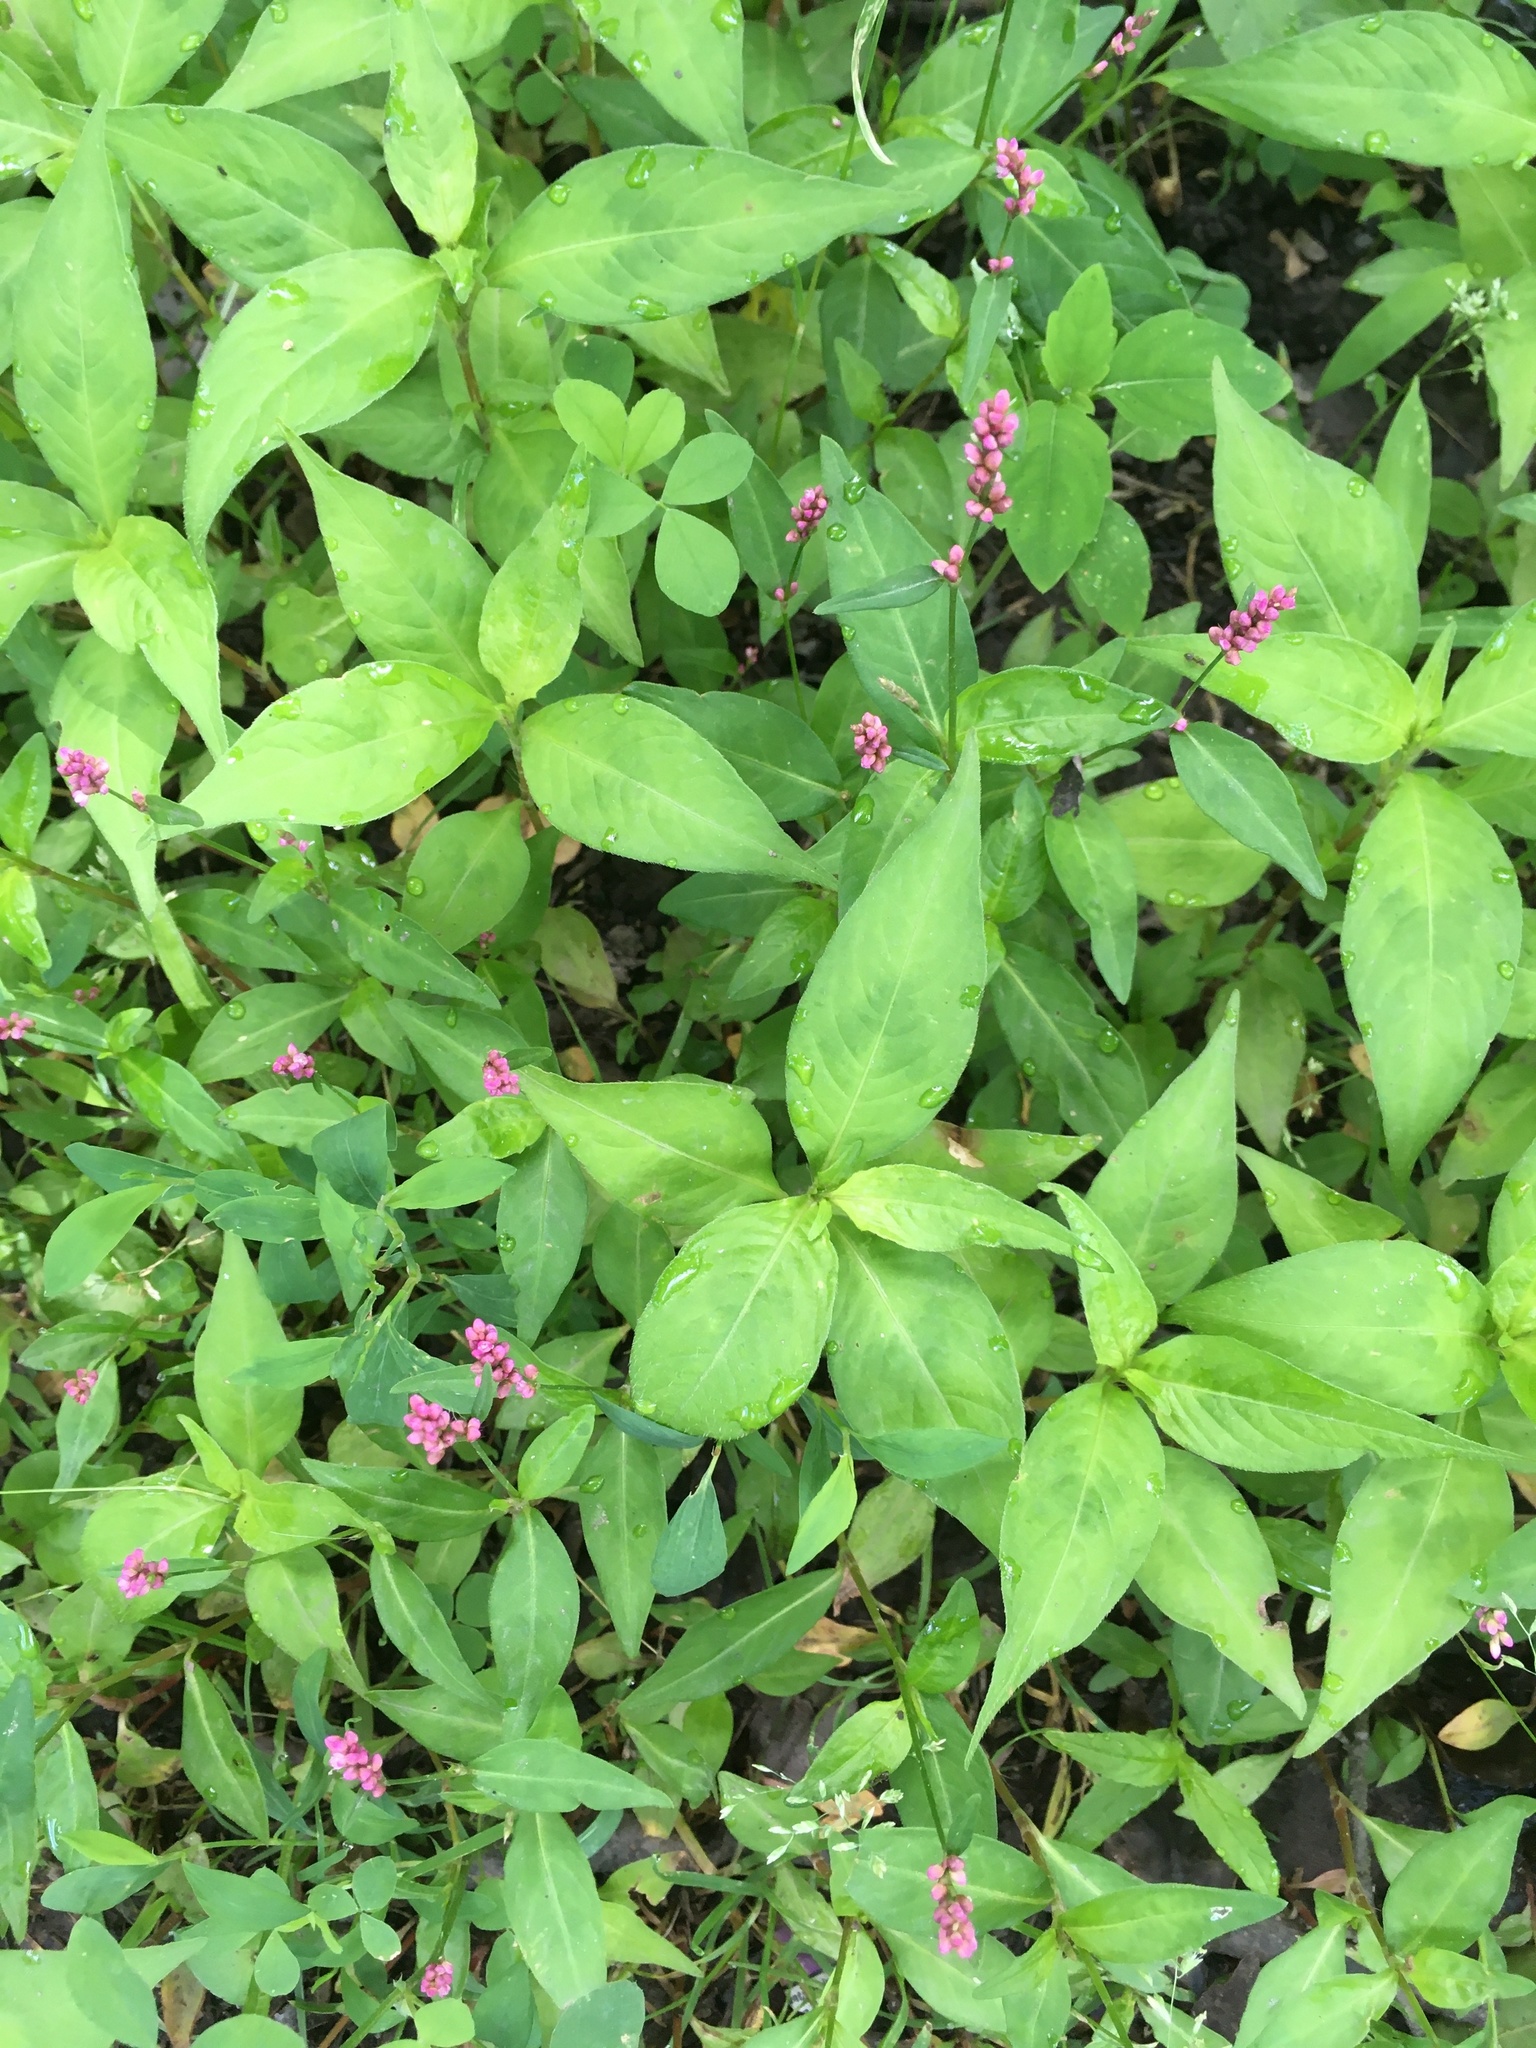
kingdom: Plantae
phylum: Tracheophyta
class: Magnoliopsida
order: Caryophyllales
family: Polygonaceae
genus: Persicaria
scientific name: Persicaria longiseta
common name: Bristly lady's-thumb
